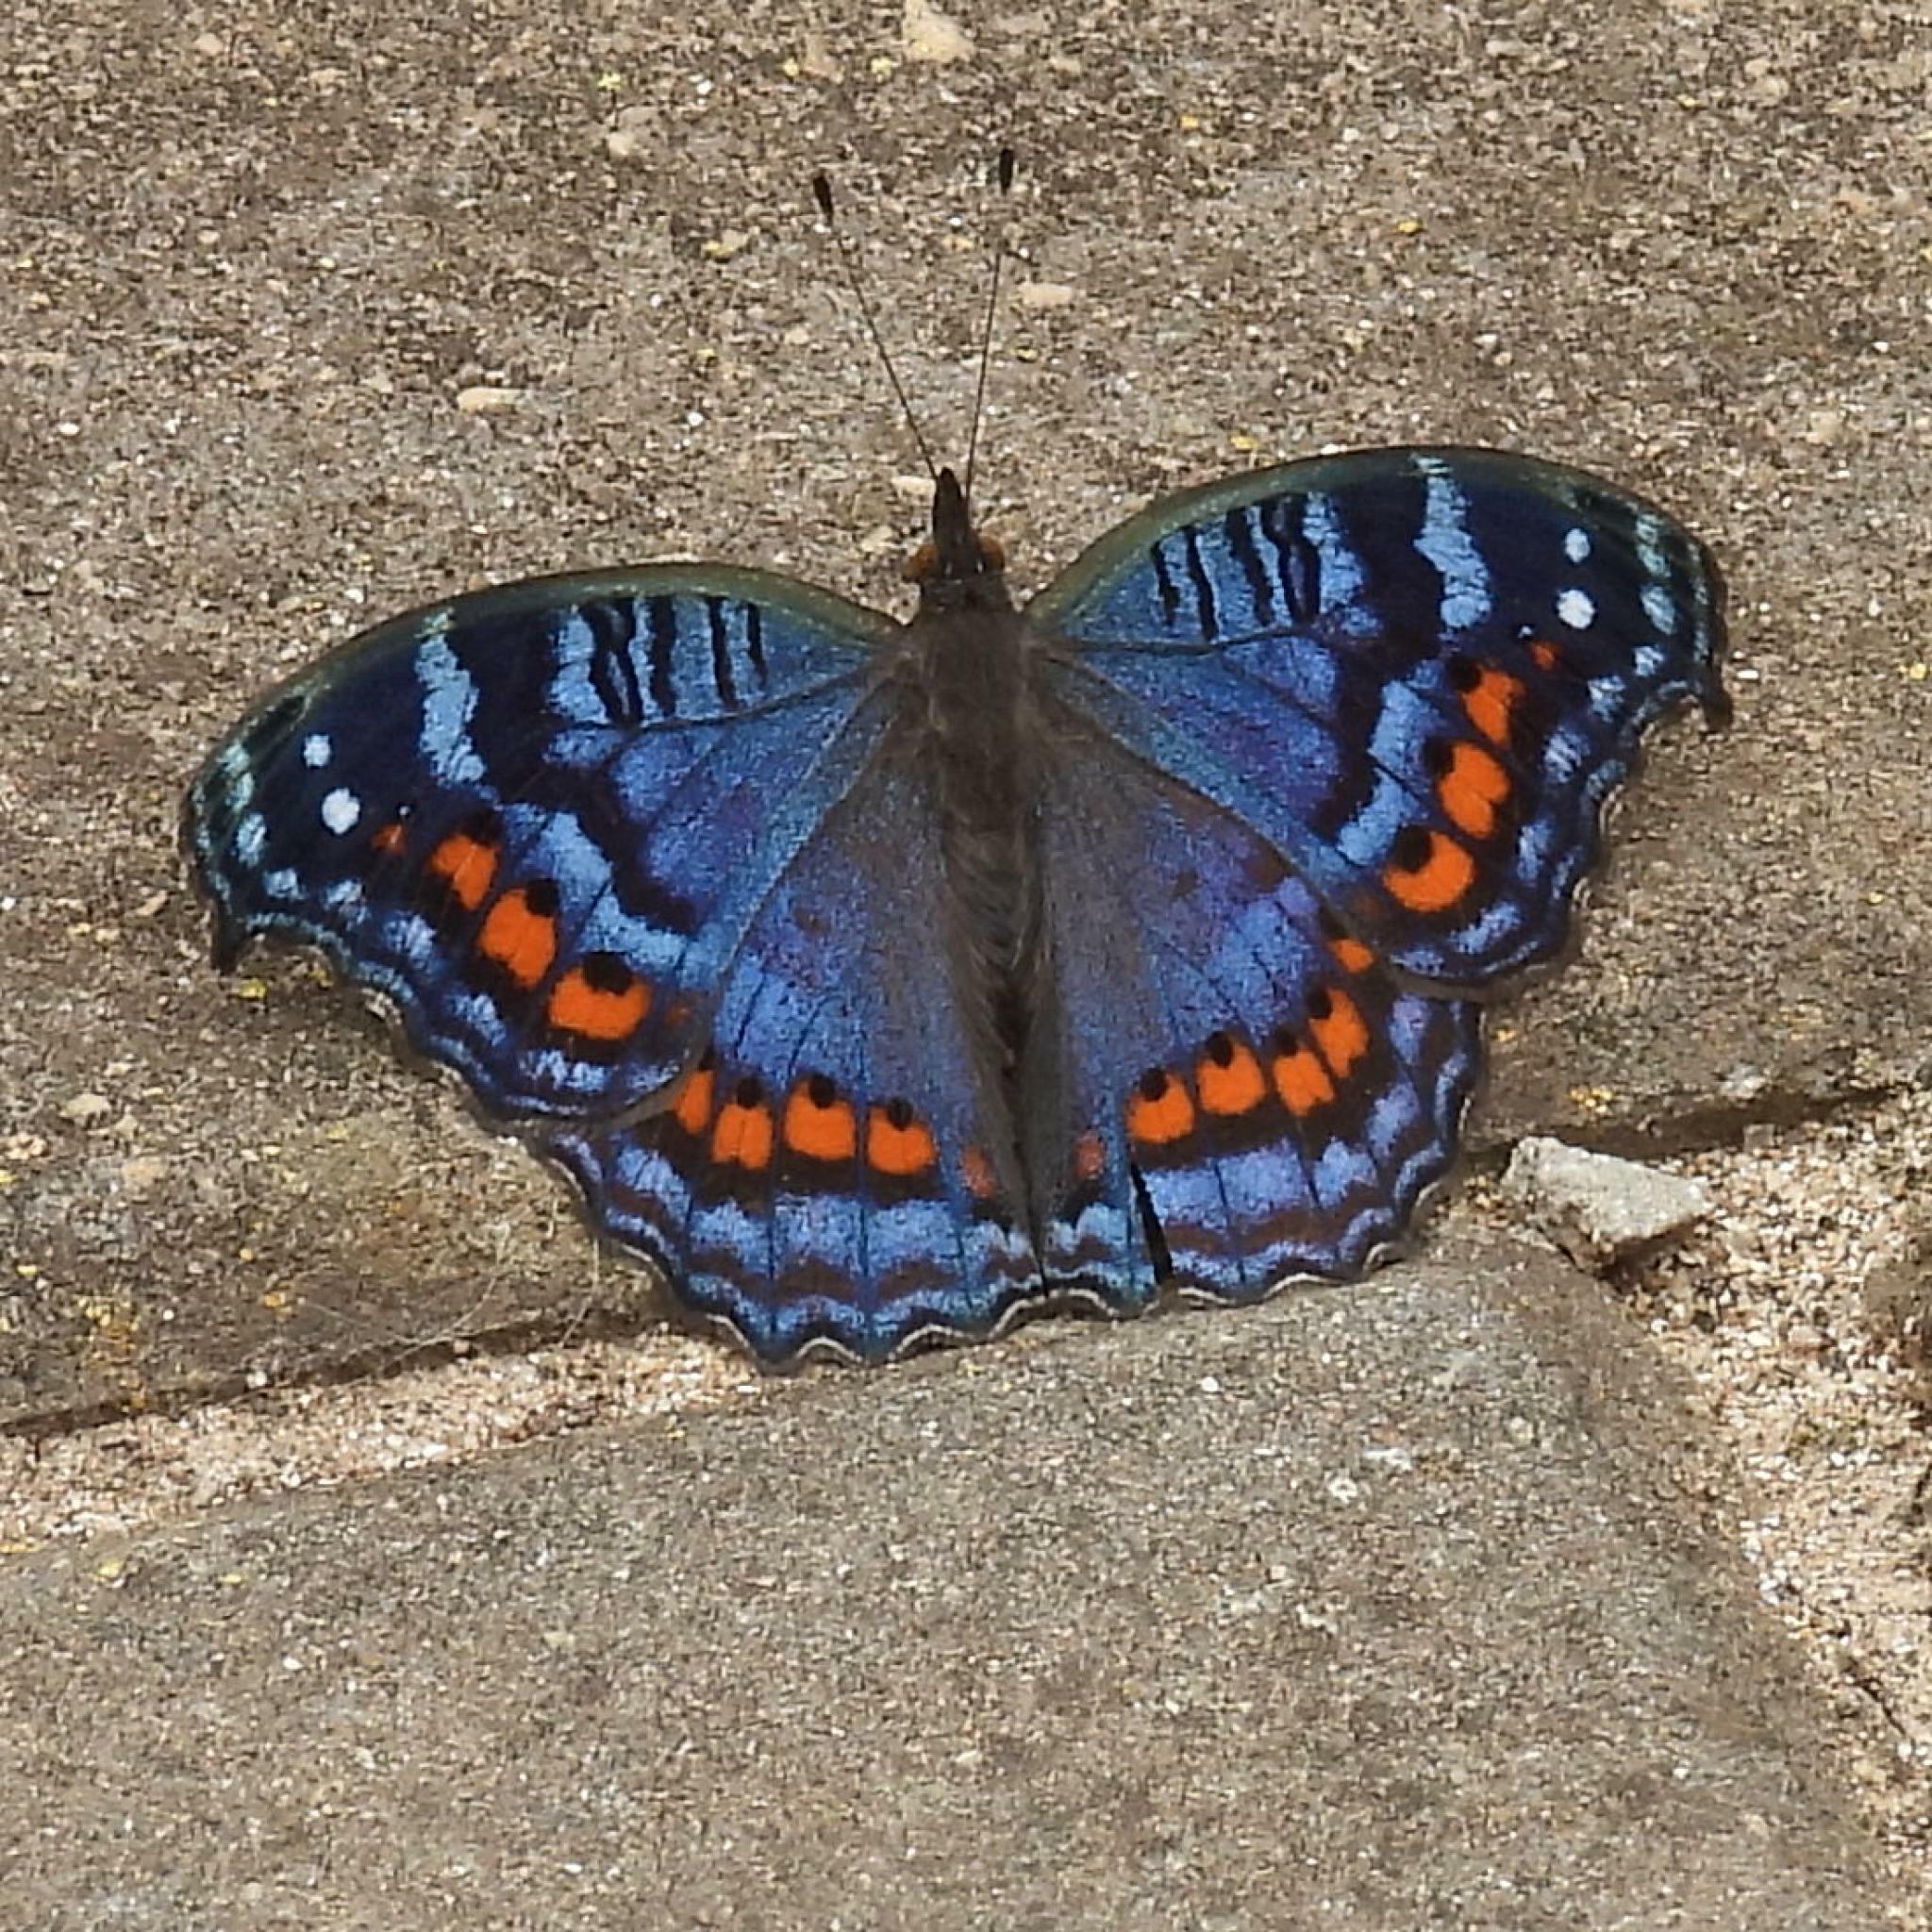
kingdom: Animalia
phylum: Arthropoda
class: Insecta
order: Lepidoptera
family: Nymphalidae
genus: Precis
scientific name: Precis octavia
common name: Gaudy commodore
